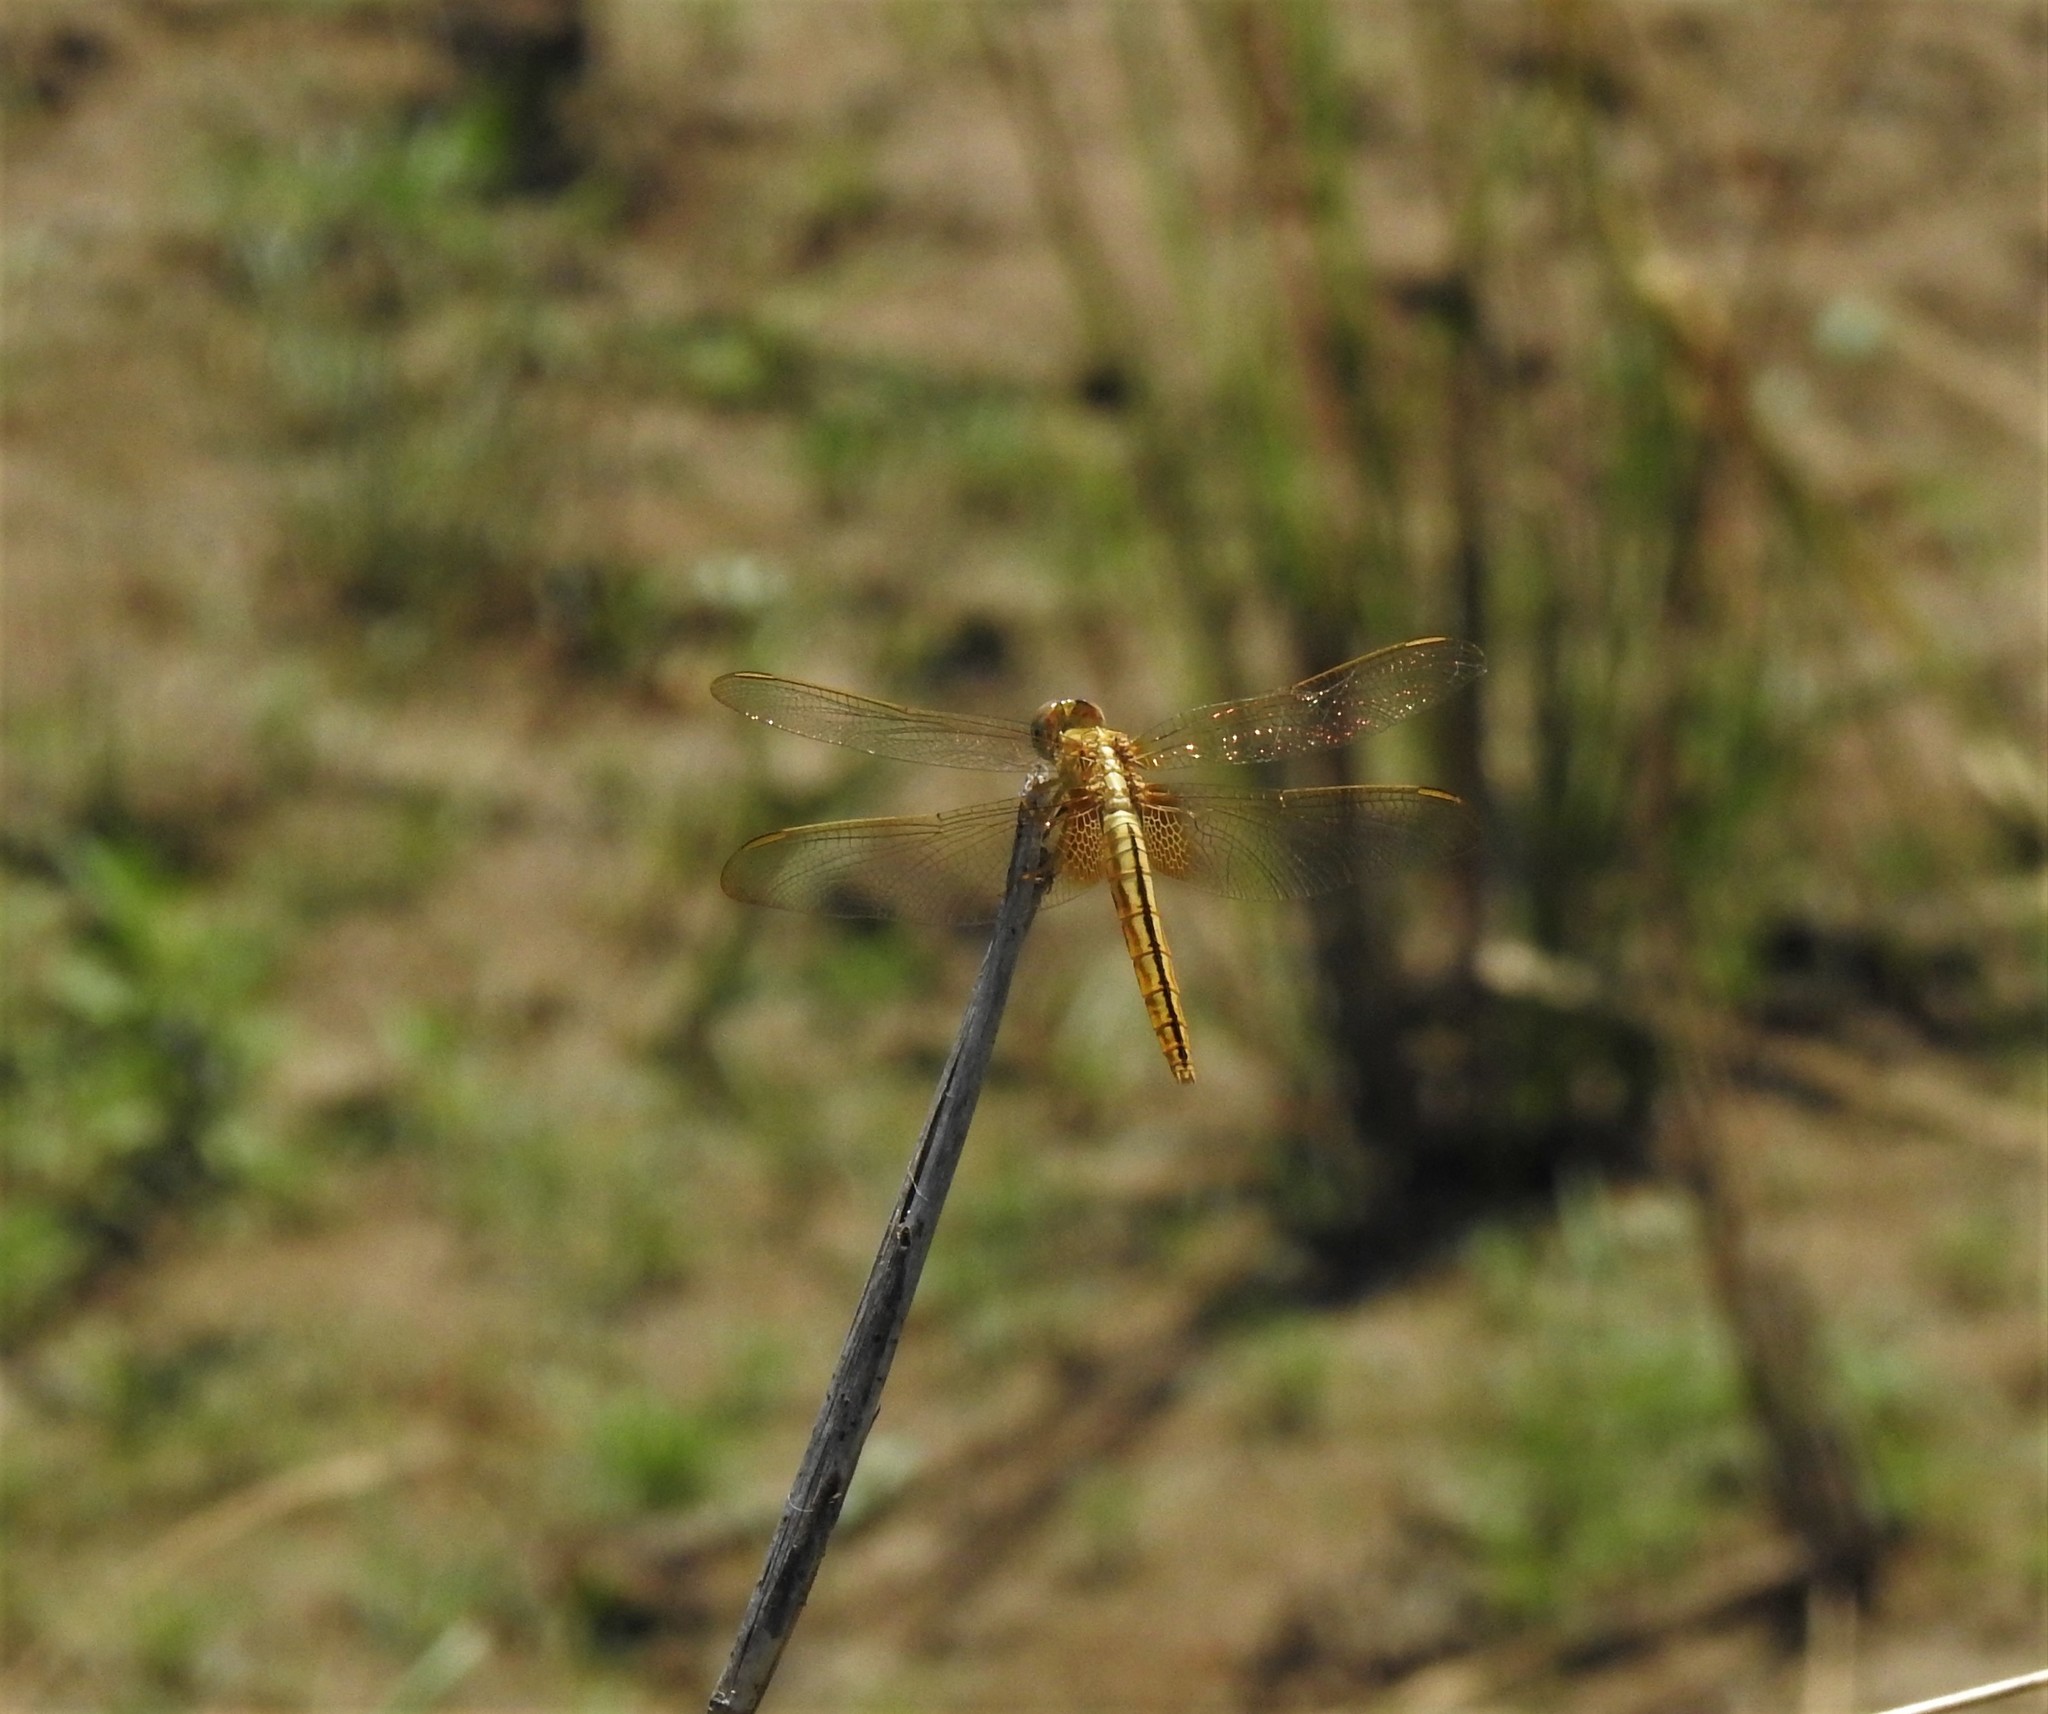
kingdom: Animalia
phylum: Arthropoda
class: Insecta
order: Odonata
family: Libellulidae
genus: Crocothemis
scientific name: Crocothemis servilia
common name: Scarlet skimmer
